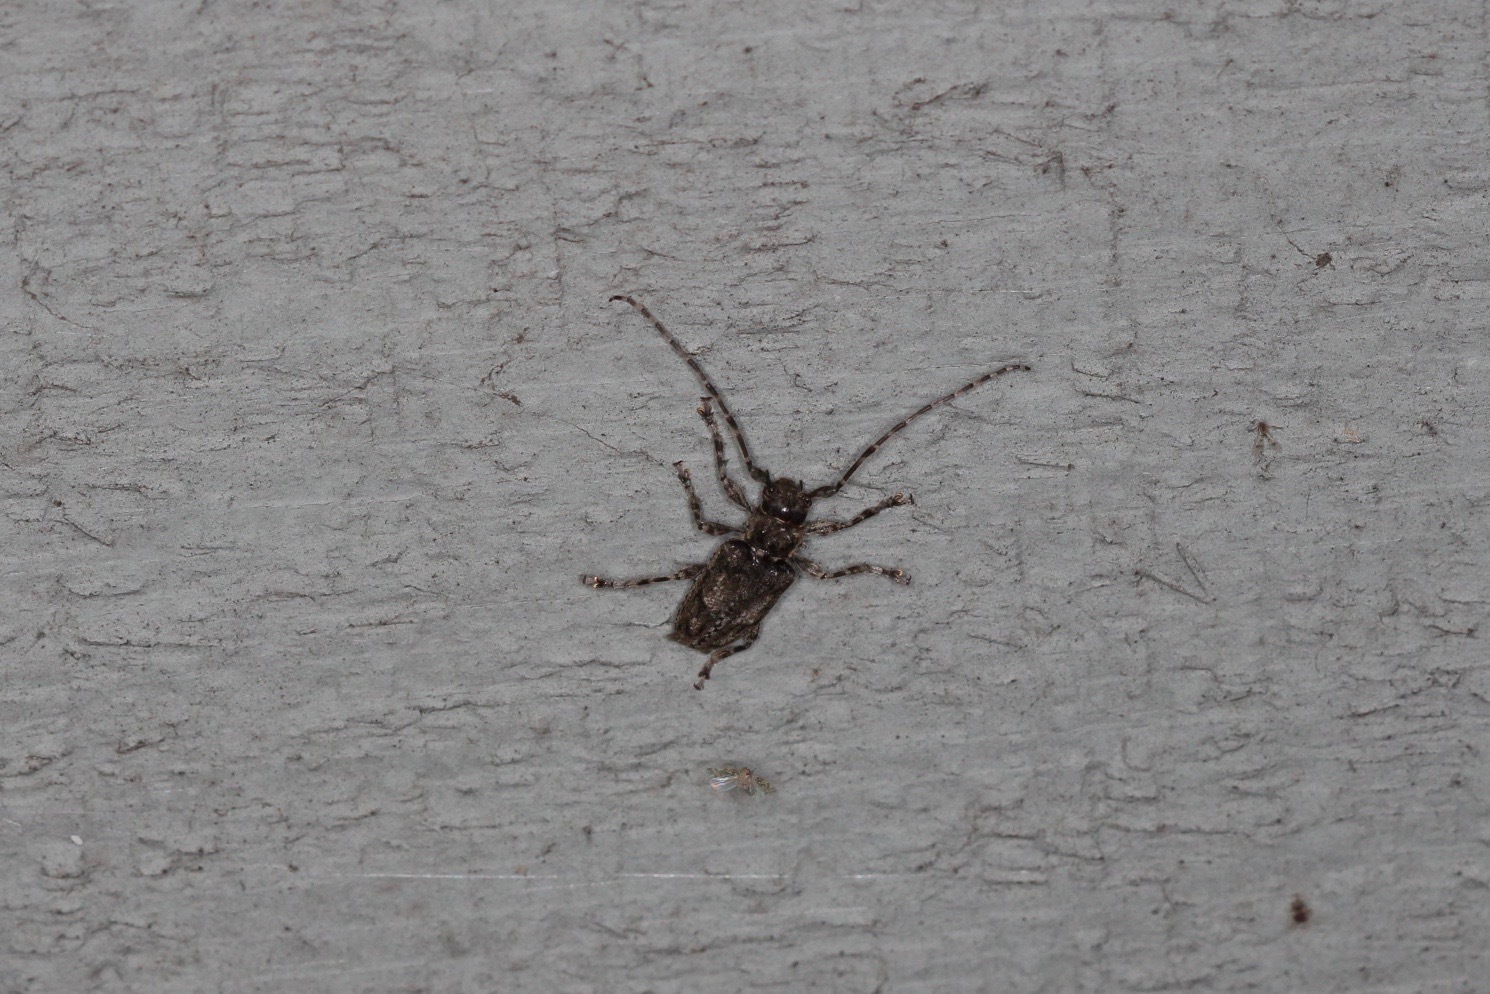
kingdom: Animalia
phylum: Arthropoda
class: Insecta
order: Coleoptera
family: Cerambycidae
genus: Aegomorphus
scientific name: Aegomorphus modestus
